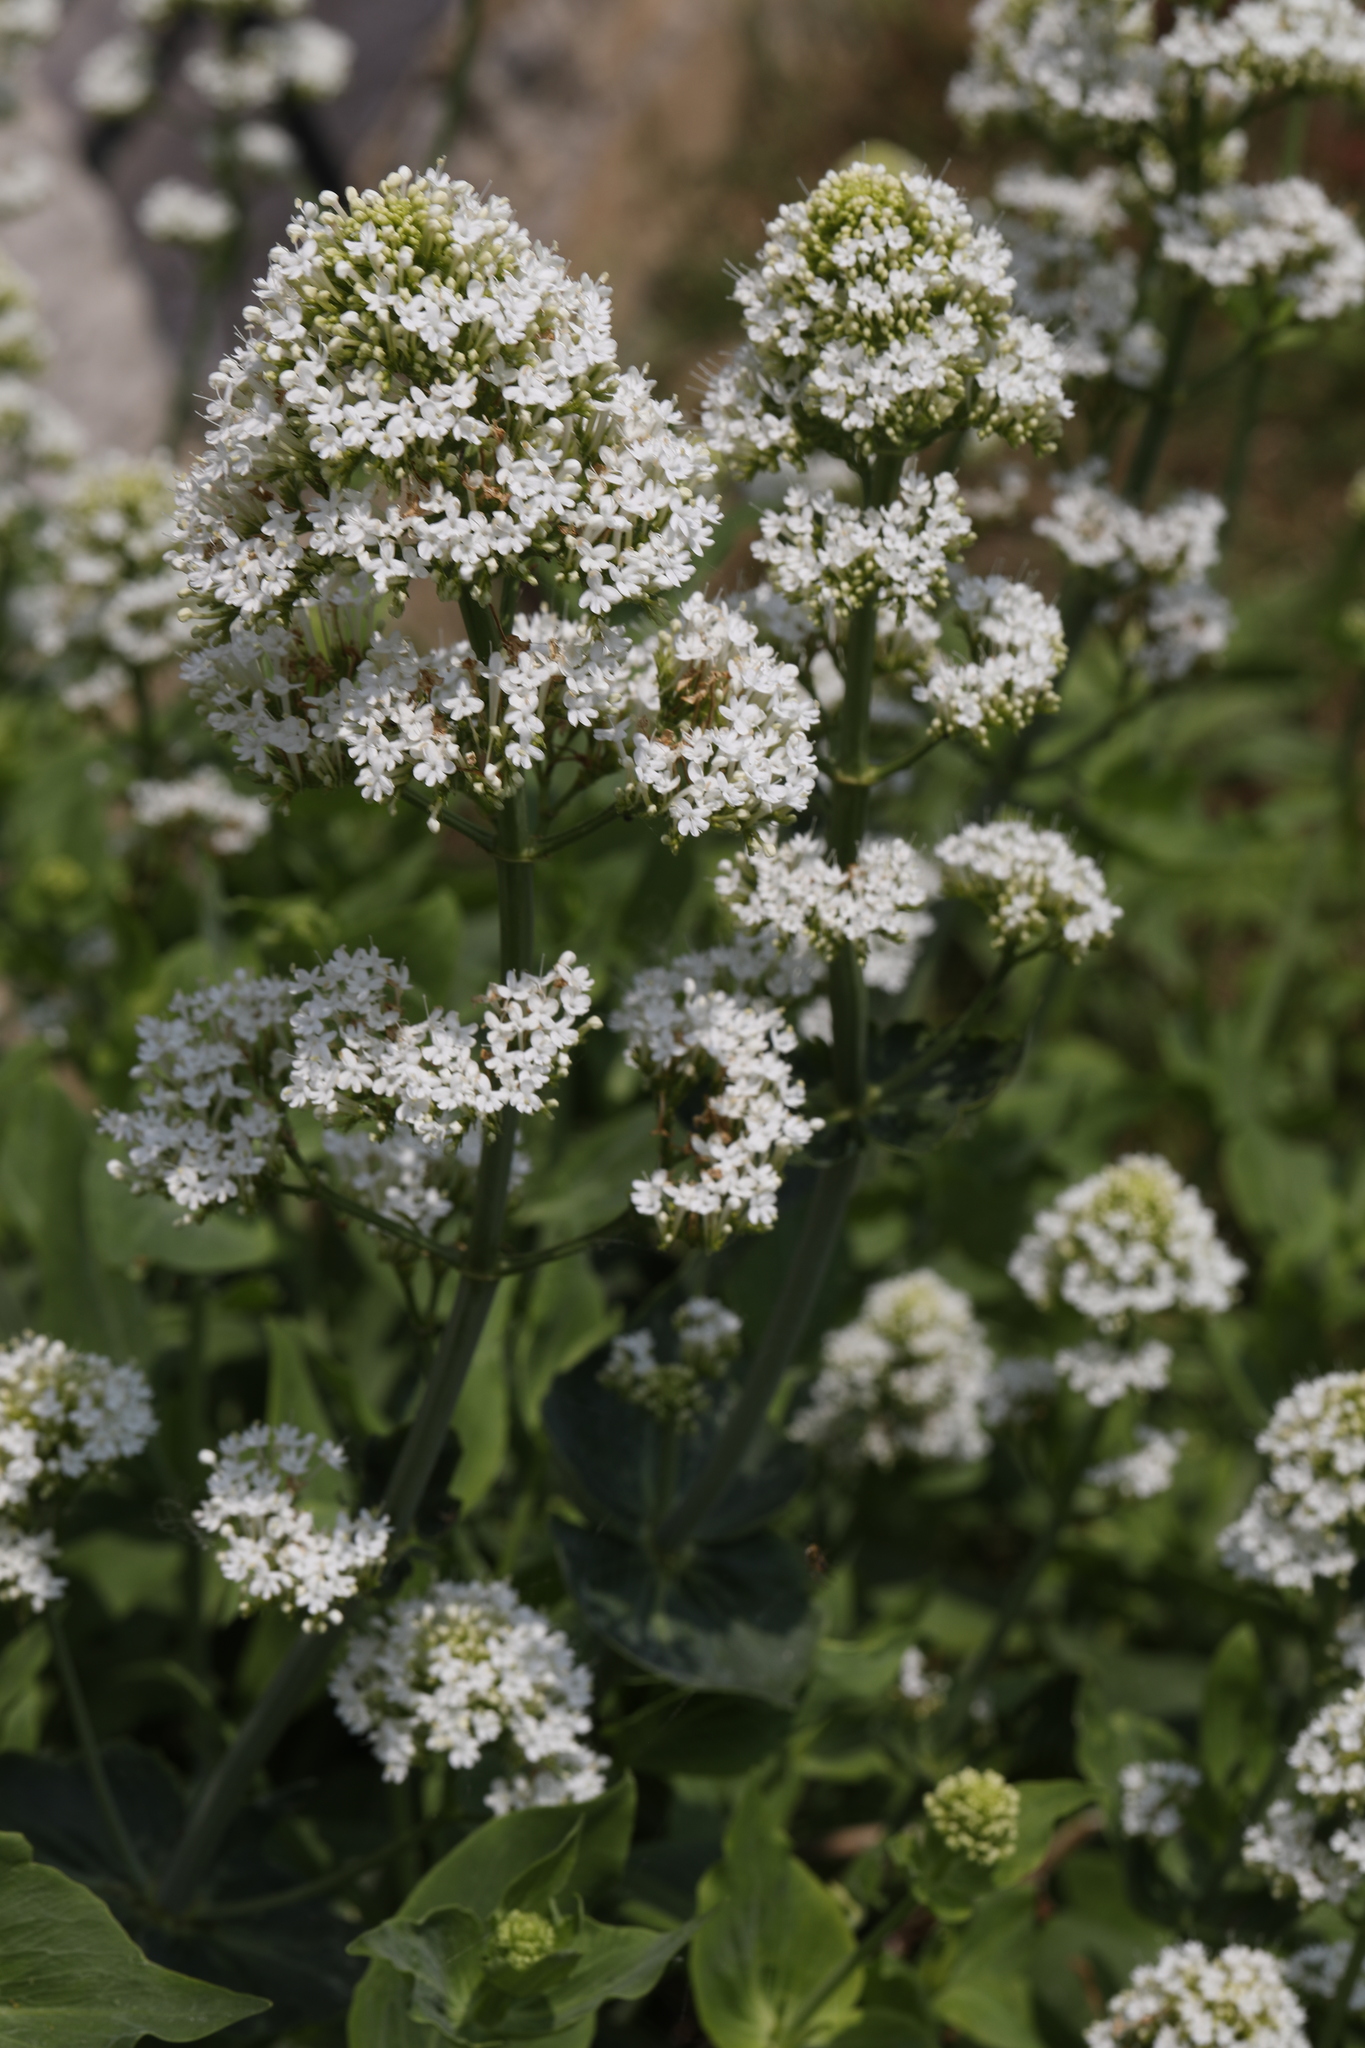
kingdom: Plantae
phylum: Tracheophyta
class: Magnoliopsida
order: Dipsacales
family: Caprifoliaceae
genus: Centranthus
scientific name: Centranthus ruber
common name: Red valerian
